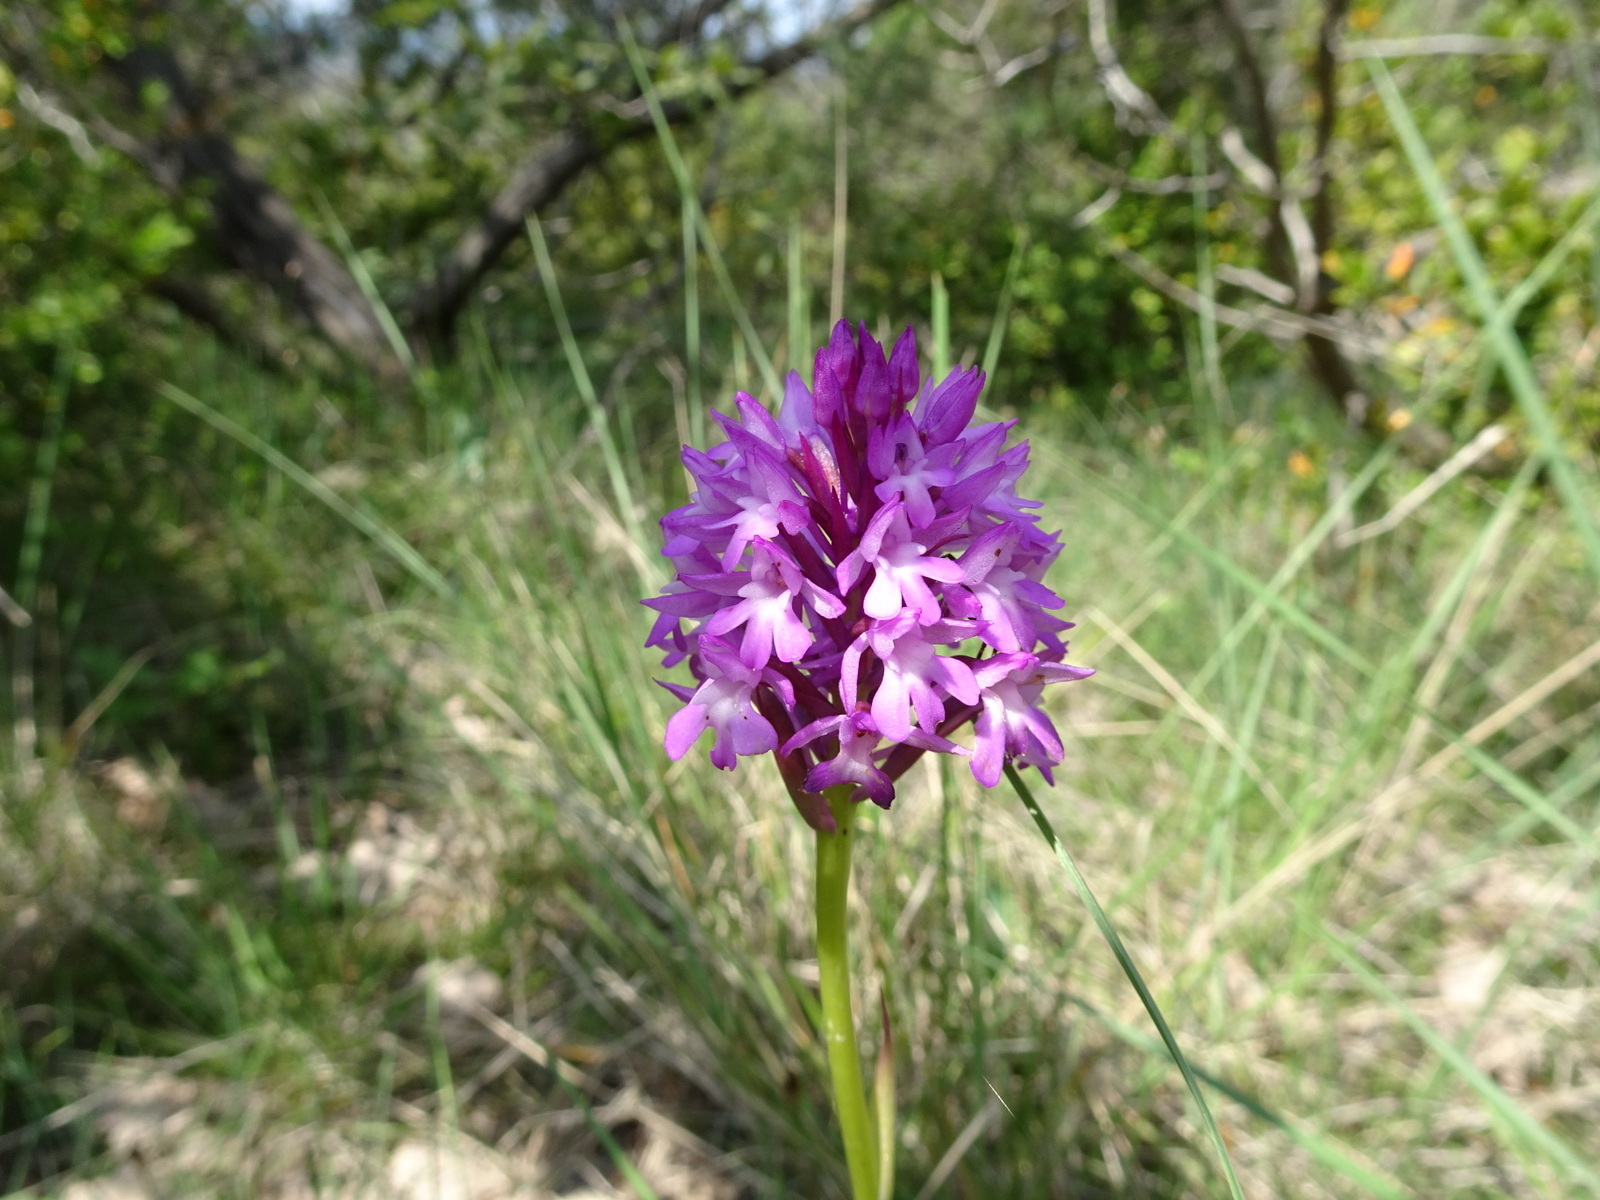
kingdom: Plantae
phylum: Tracheophyta
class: Liliopsida
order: Asparagales
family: Orchidaceae
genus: Anacamptis
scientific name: Anacamptis pyramidalis
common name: Pyramidal orchid
